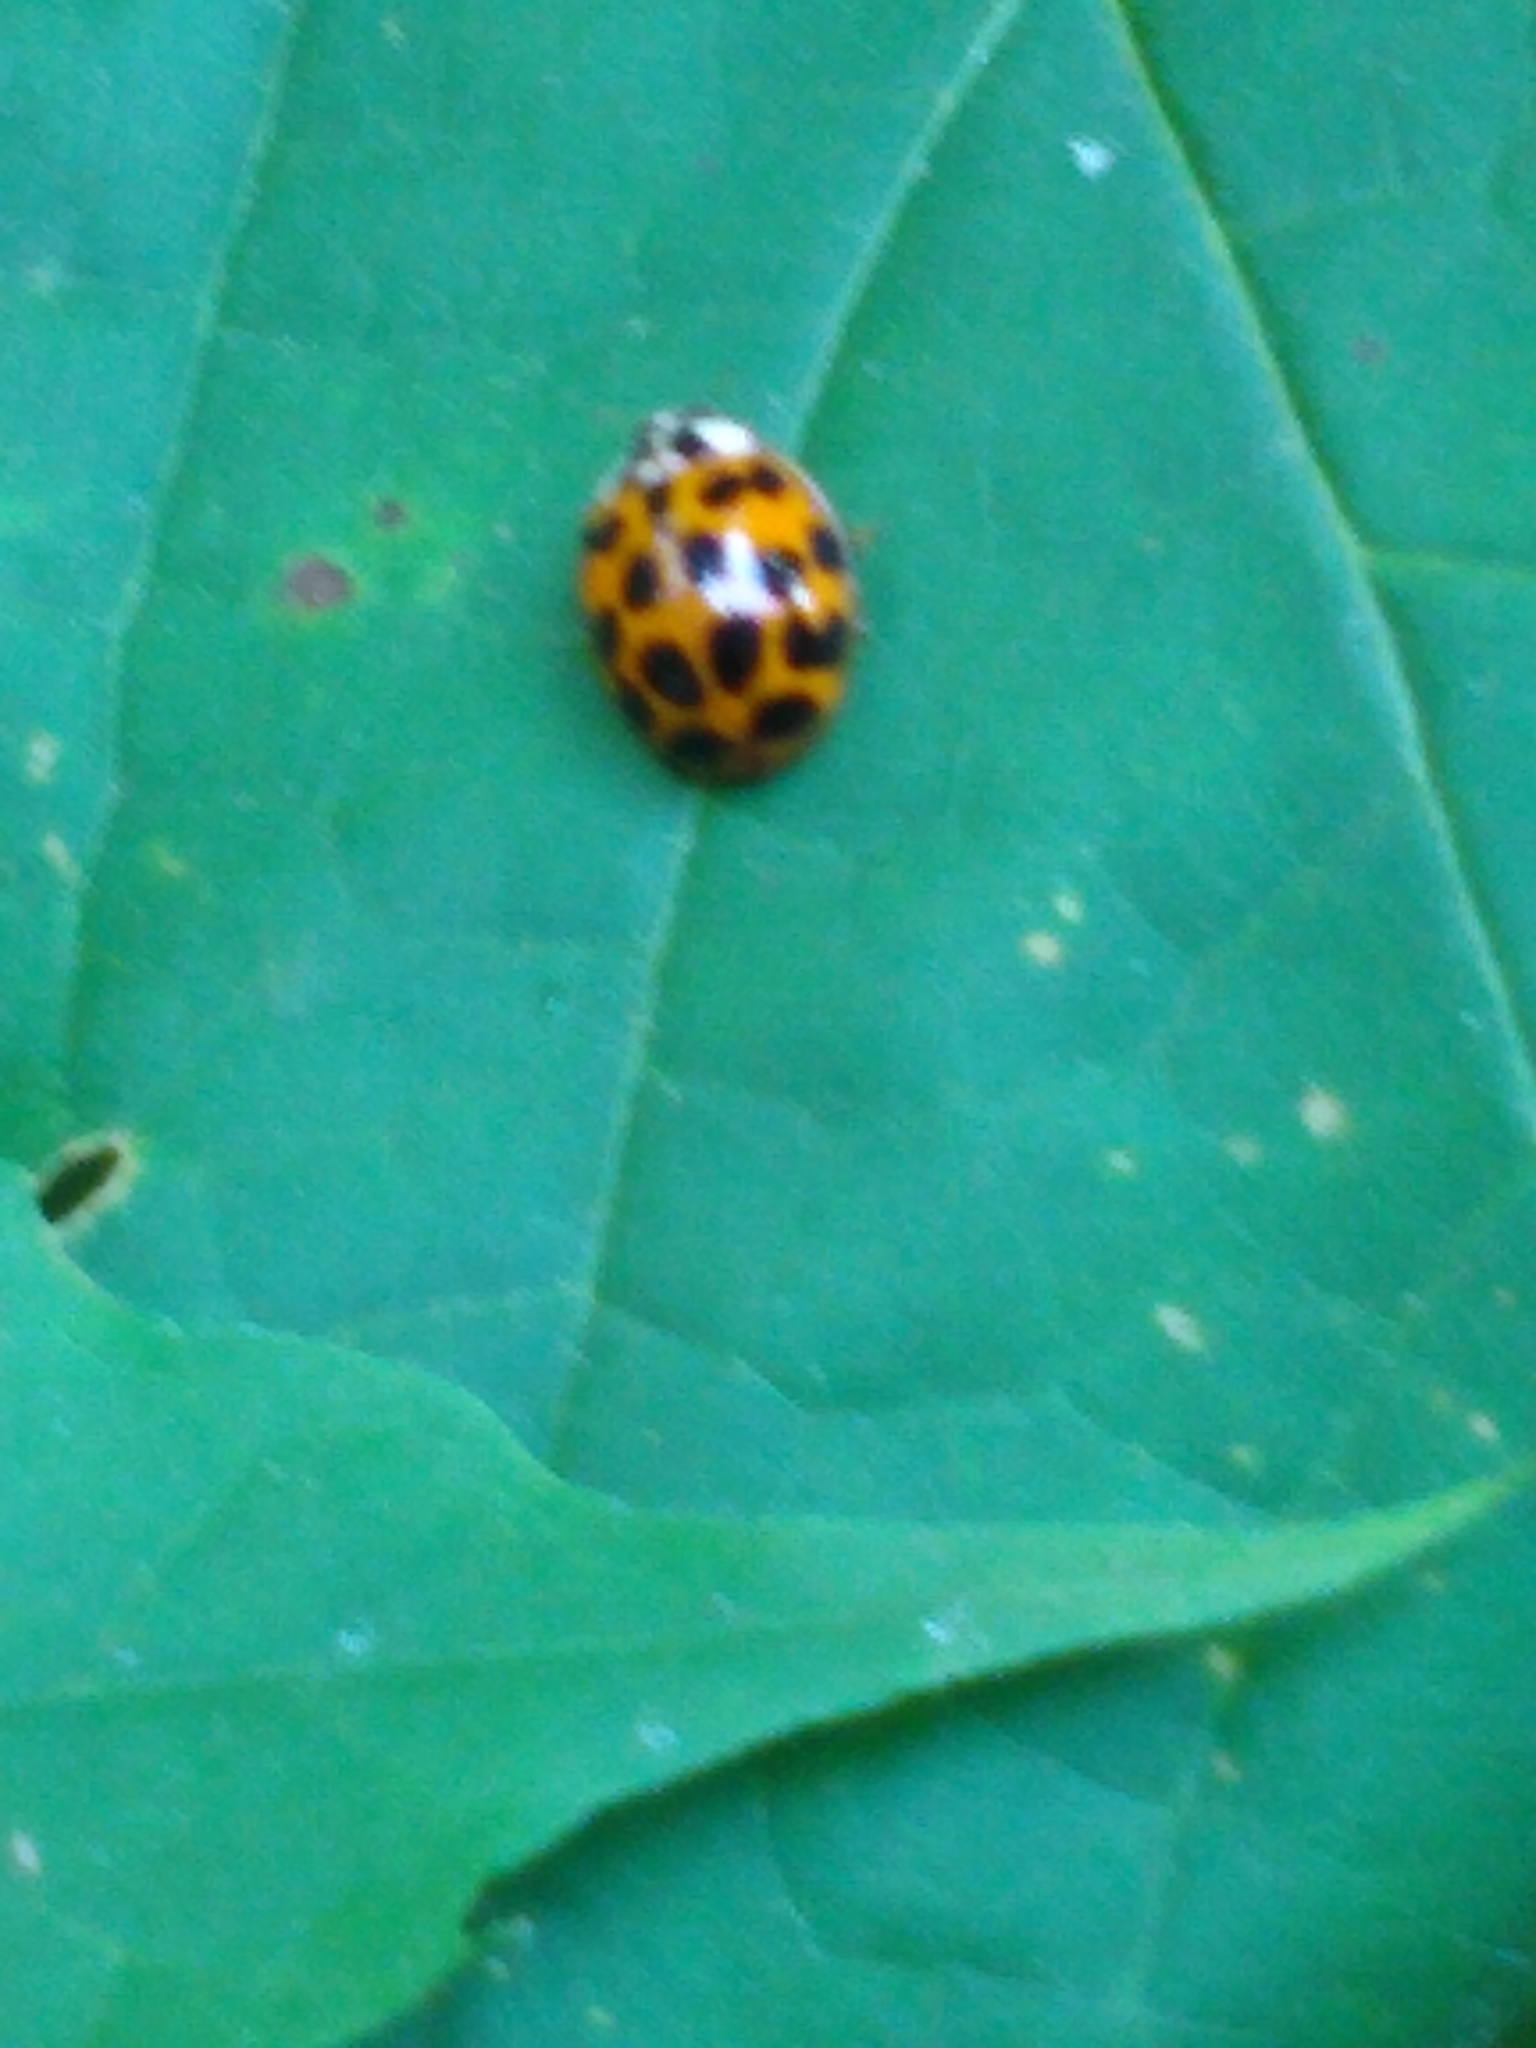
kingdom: Animalia
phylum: Arthropoda
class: Insecta
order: Coleoptera
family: Coccinellidae
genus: Harmonia
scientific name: Harmonia axyridis
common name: Harlequin ladybird
